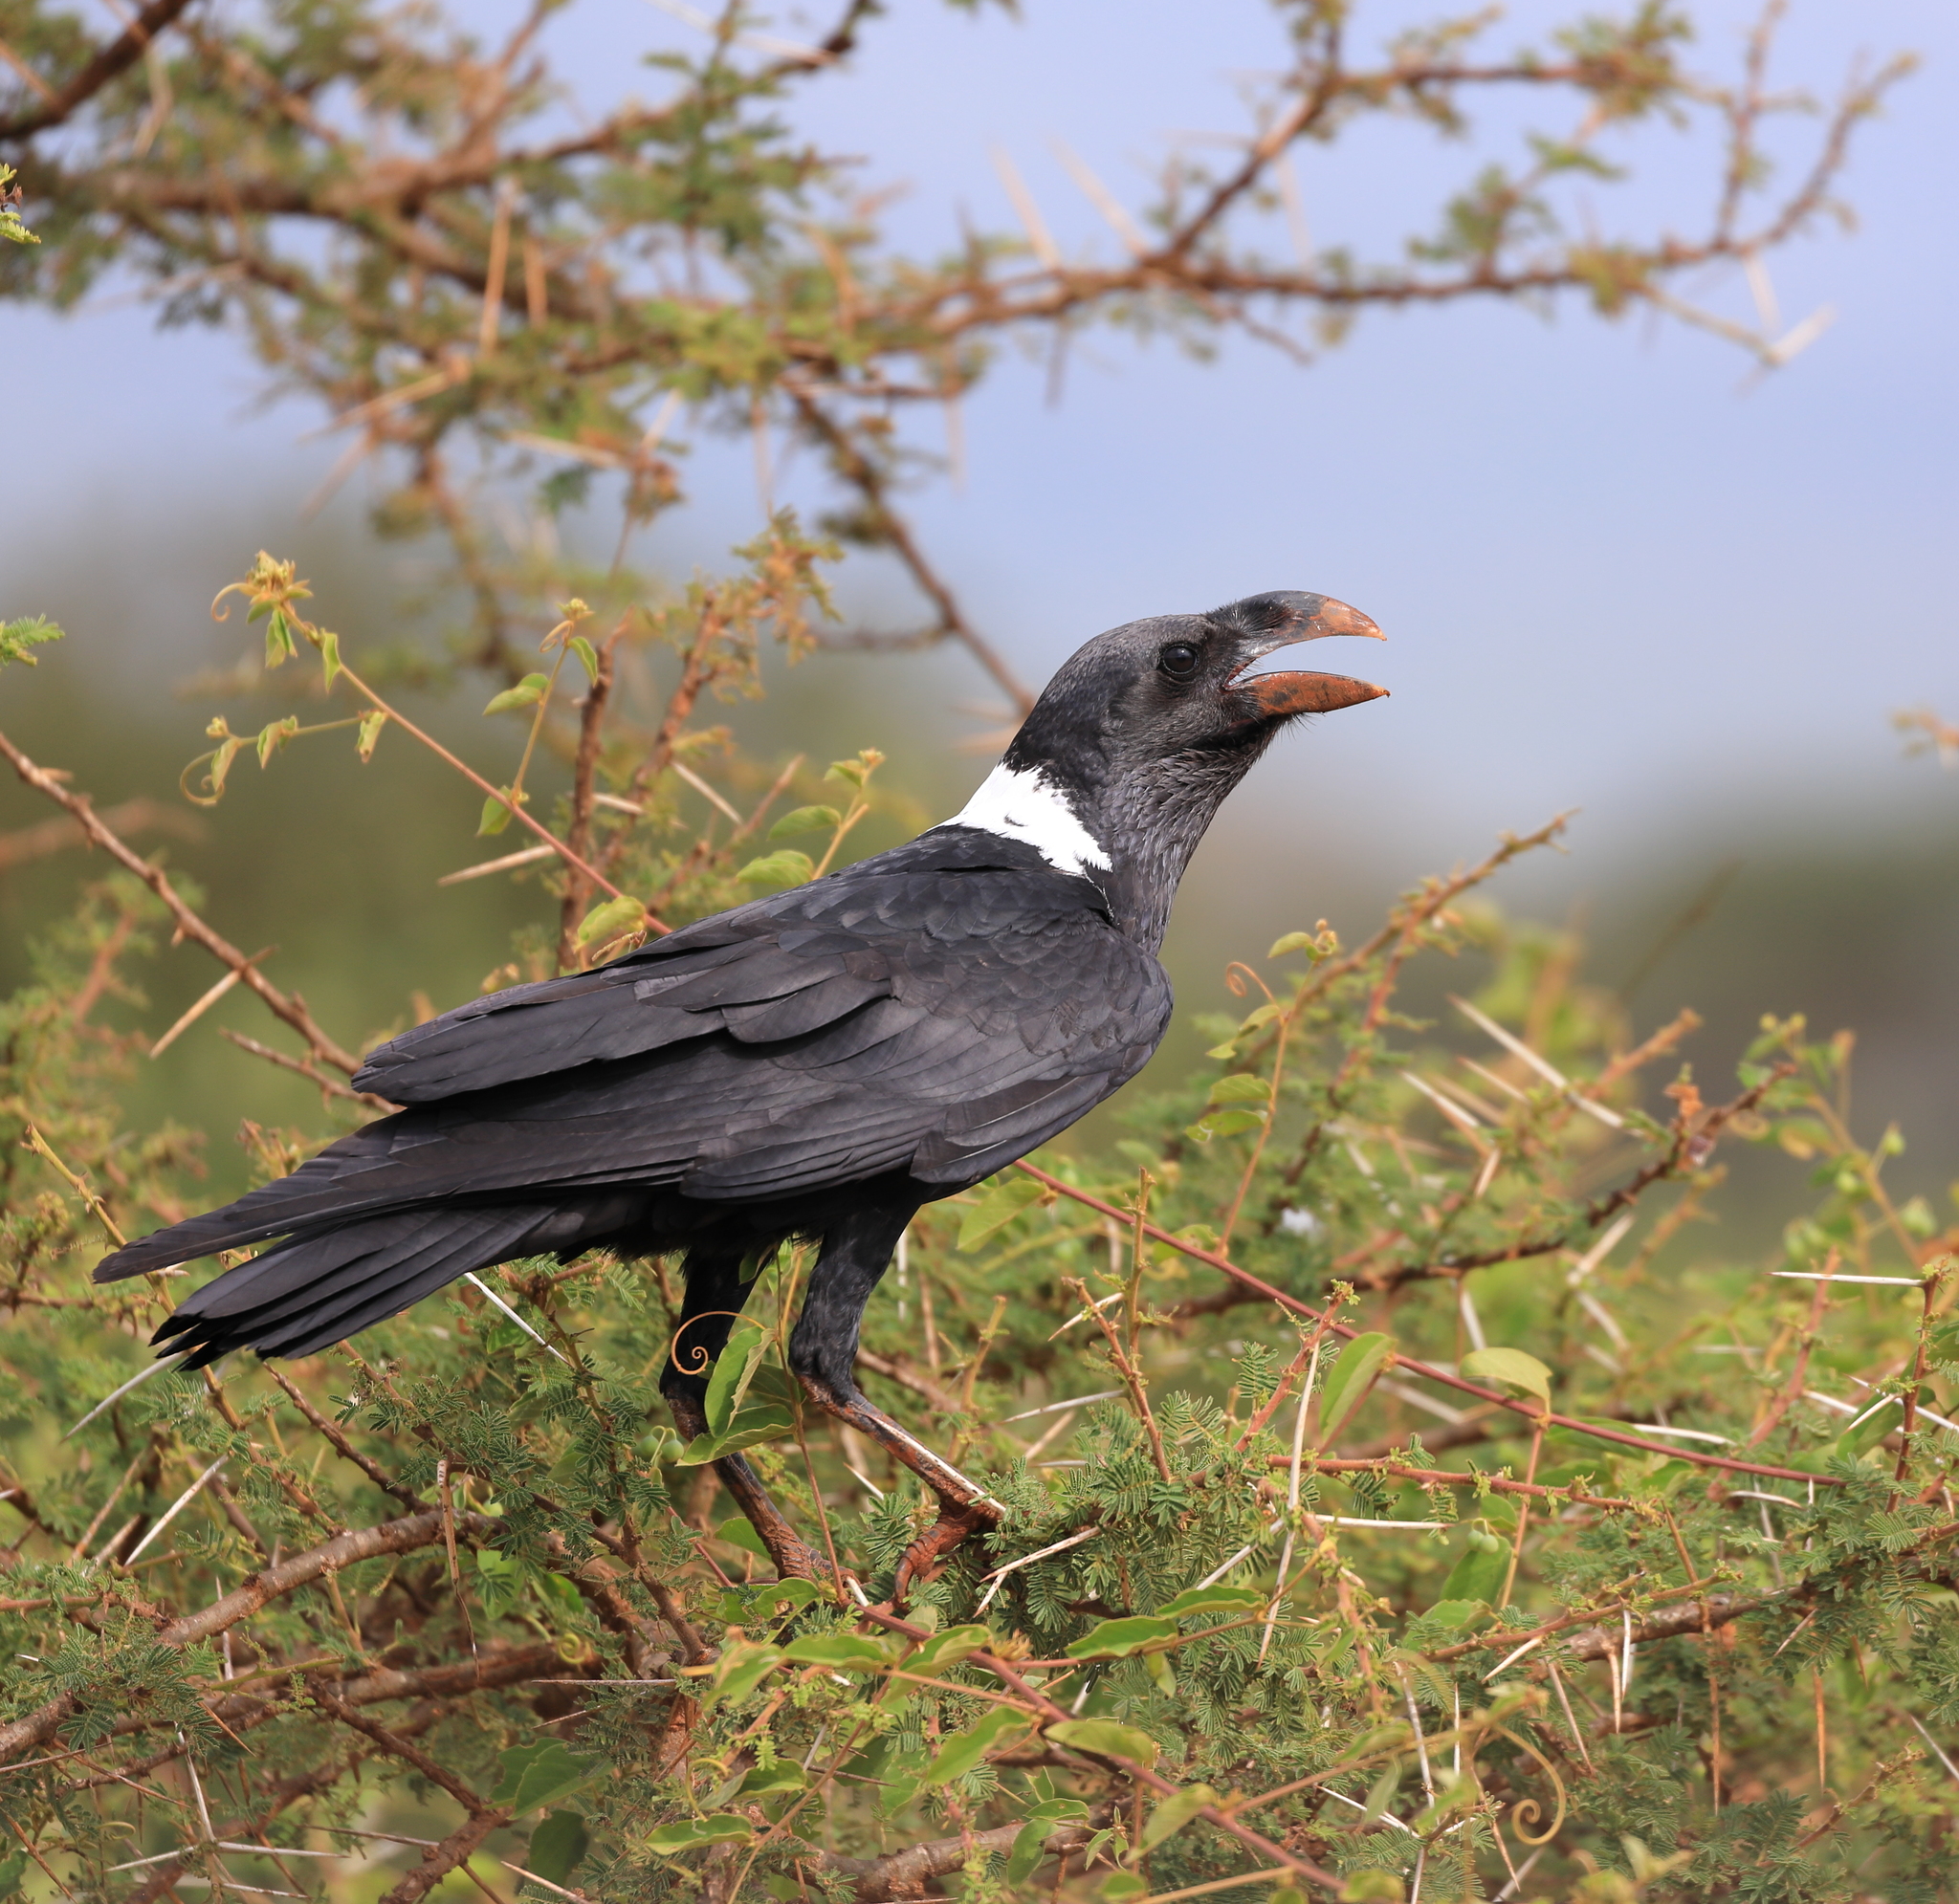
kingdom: Animalia
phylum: Chordata
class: Aves
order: Passeriformes
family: Corvidae
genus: Corvus
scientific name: Corvus albicollis
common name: White-necked raven
